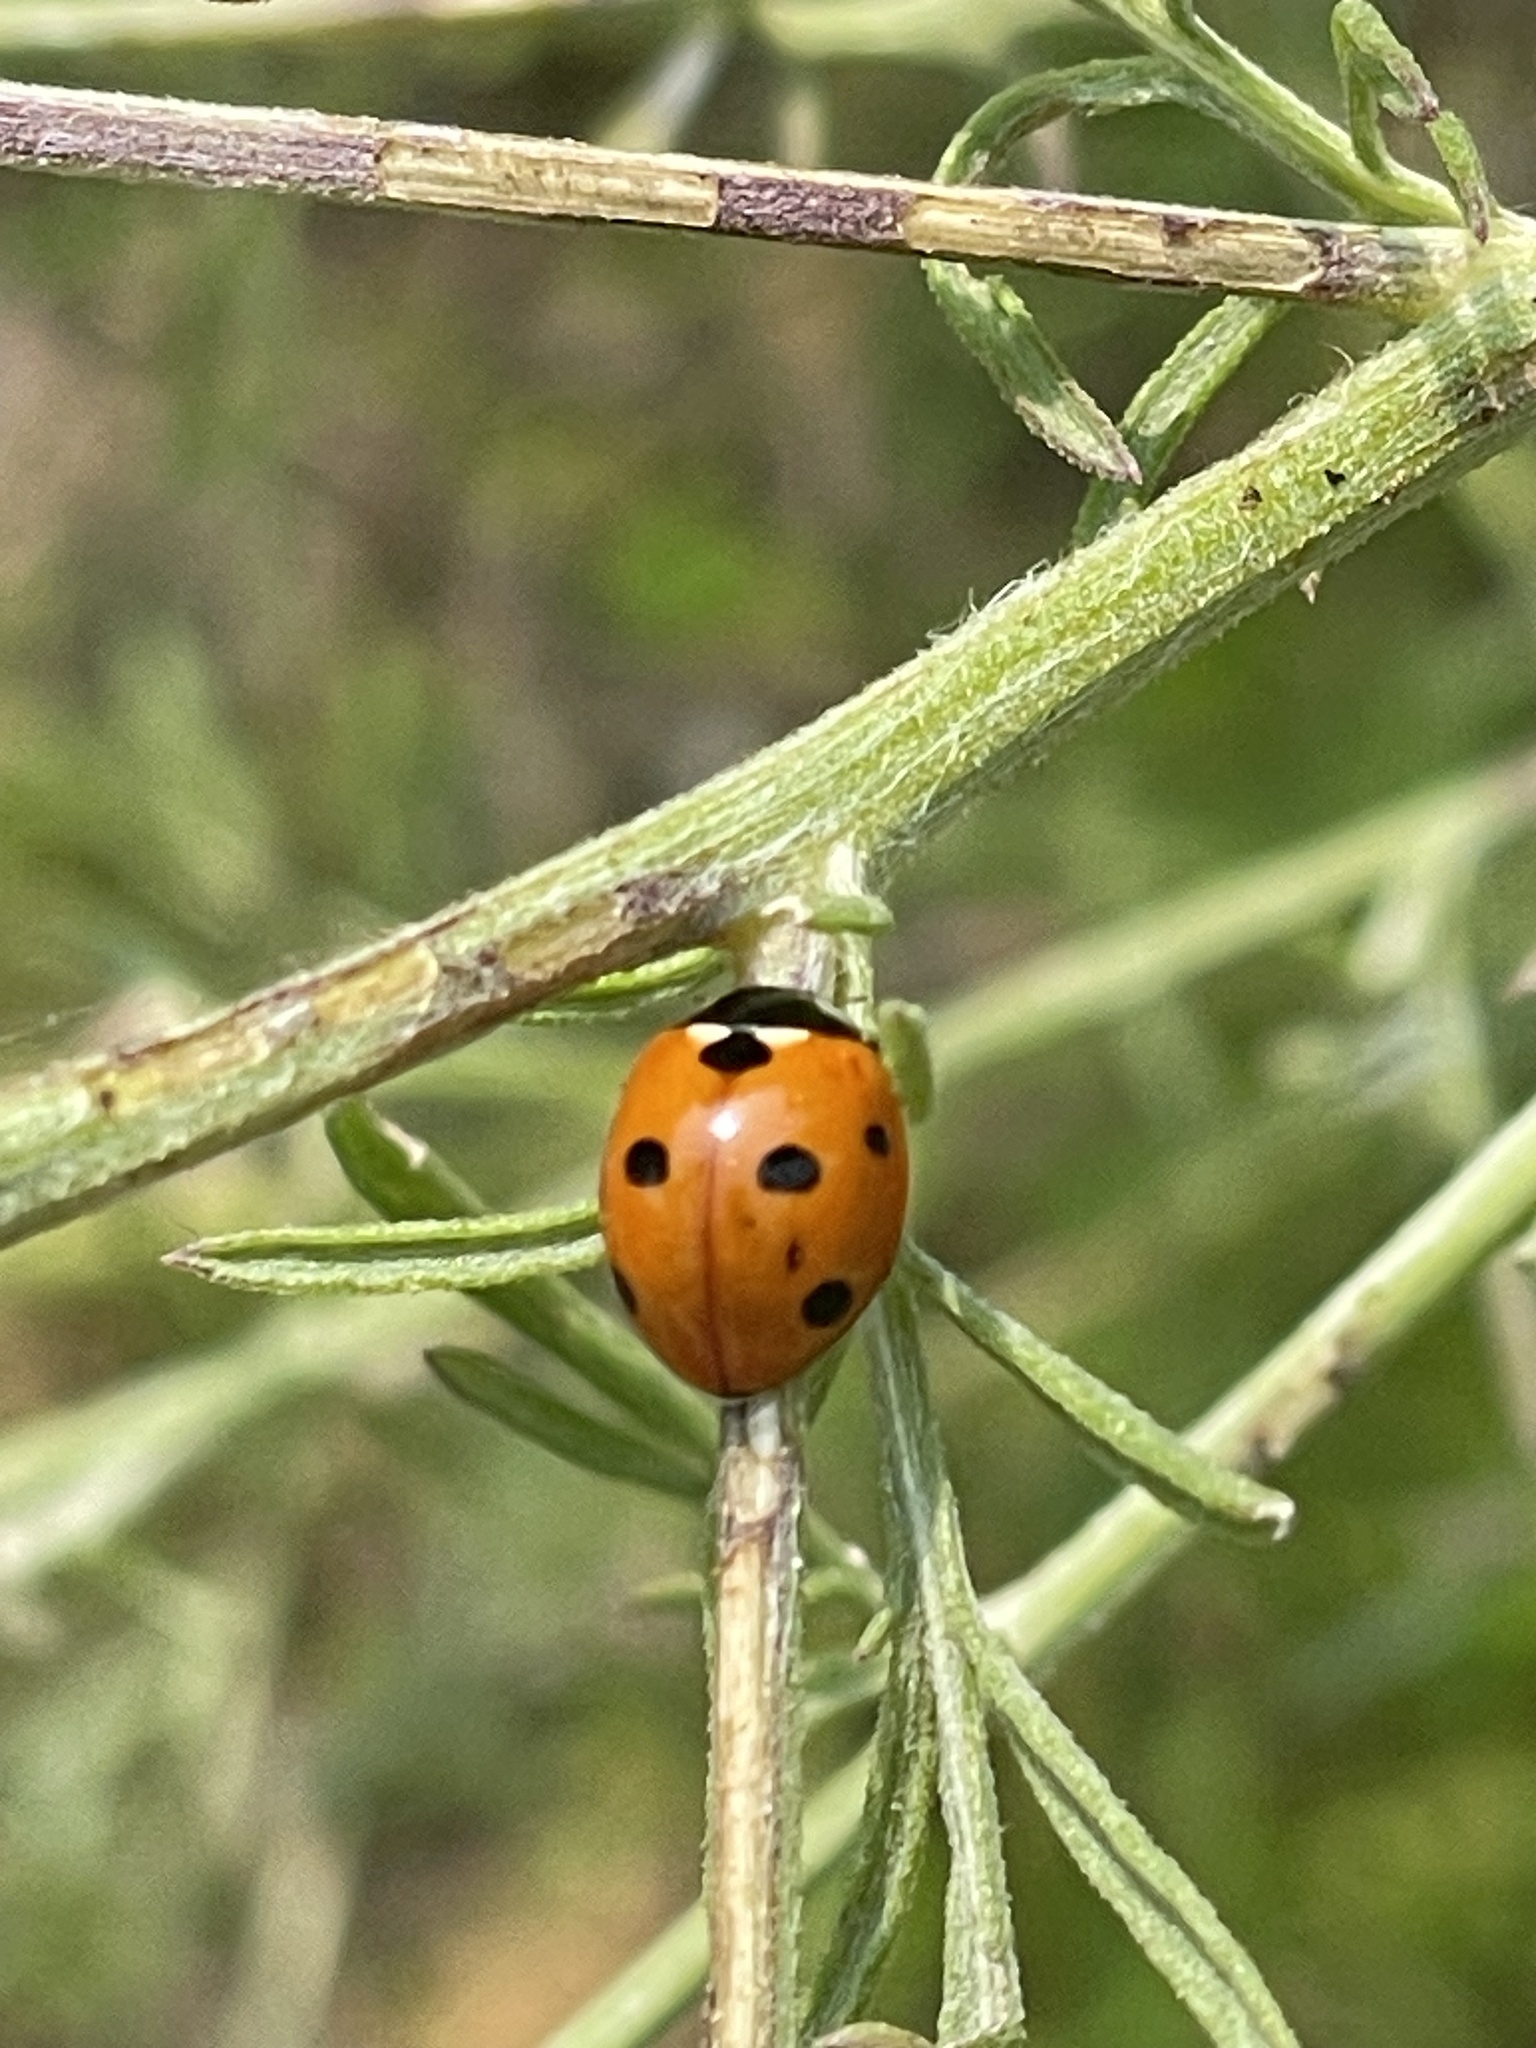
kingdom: Animalia
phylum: Arthropoda
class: Insecta
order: Coleoptera
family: Coccinellidae
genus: Coccinella
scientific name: Coccinella septempunctata
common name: Sevenspotted lady beetle
